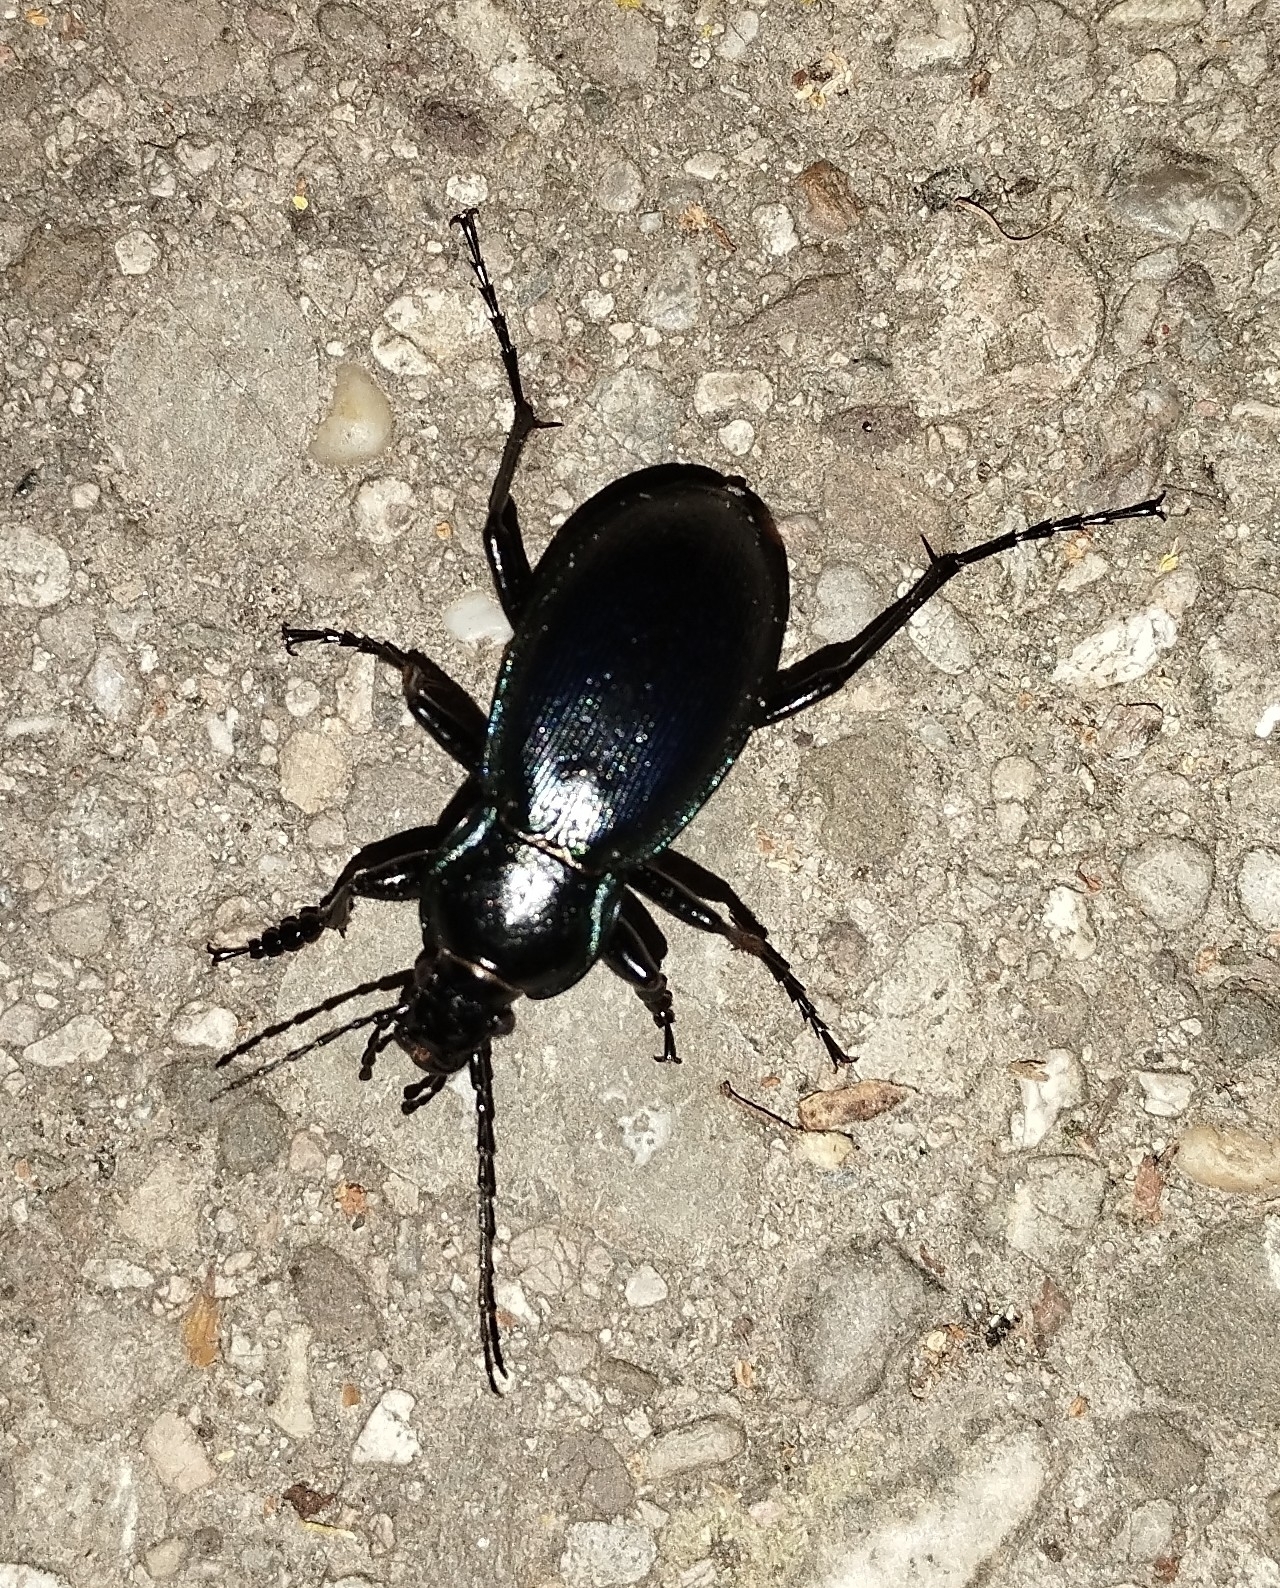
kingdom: Animalia
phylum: Arthropoda
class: Insecta
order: Coleoptera
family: Carabidae
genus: Carabus
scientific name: Carabus scheidleri
